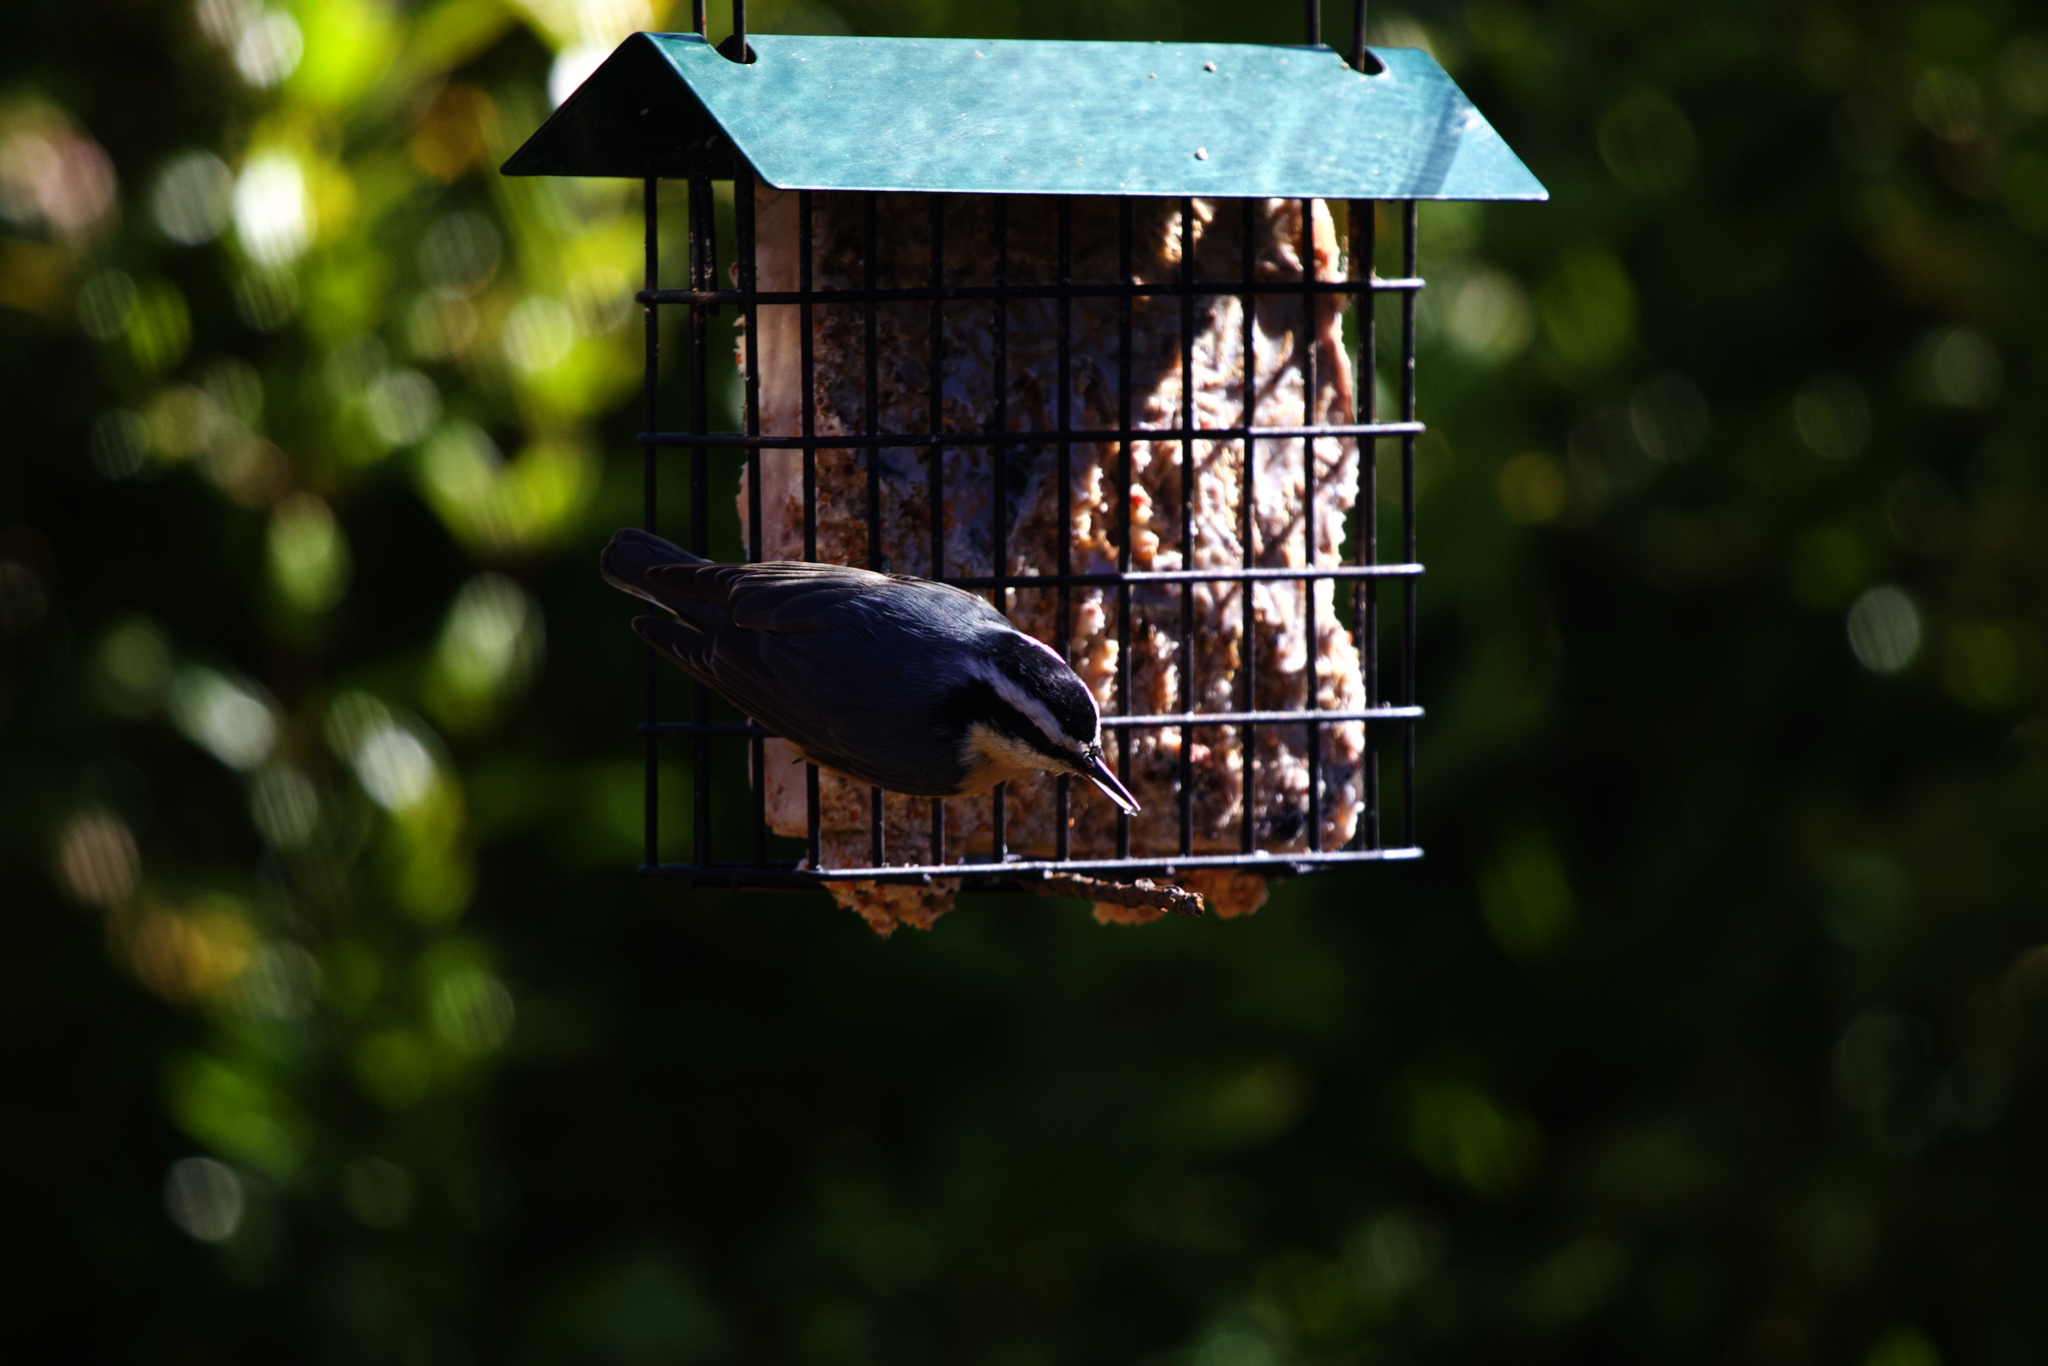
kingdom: Animalia
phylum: Chordata
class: Aves
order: Passeriformes
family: Sittidae
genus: Sitta
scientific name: Sitta canadensis
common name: Red-breasted nuthatch
